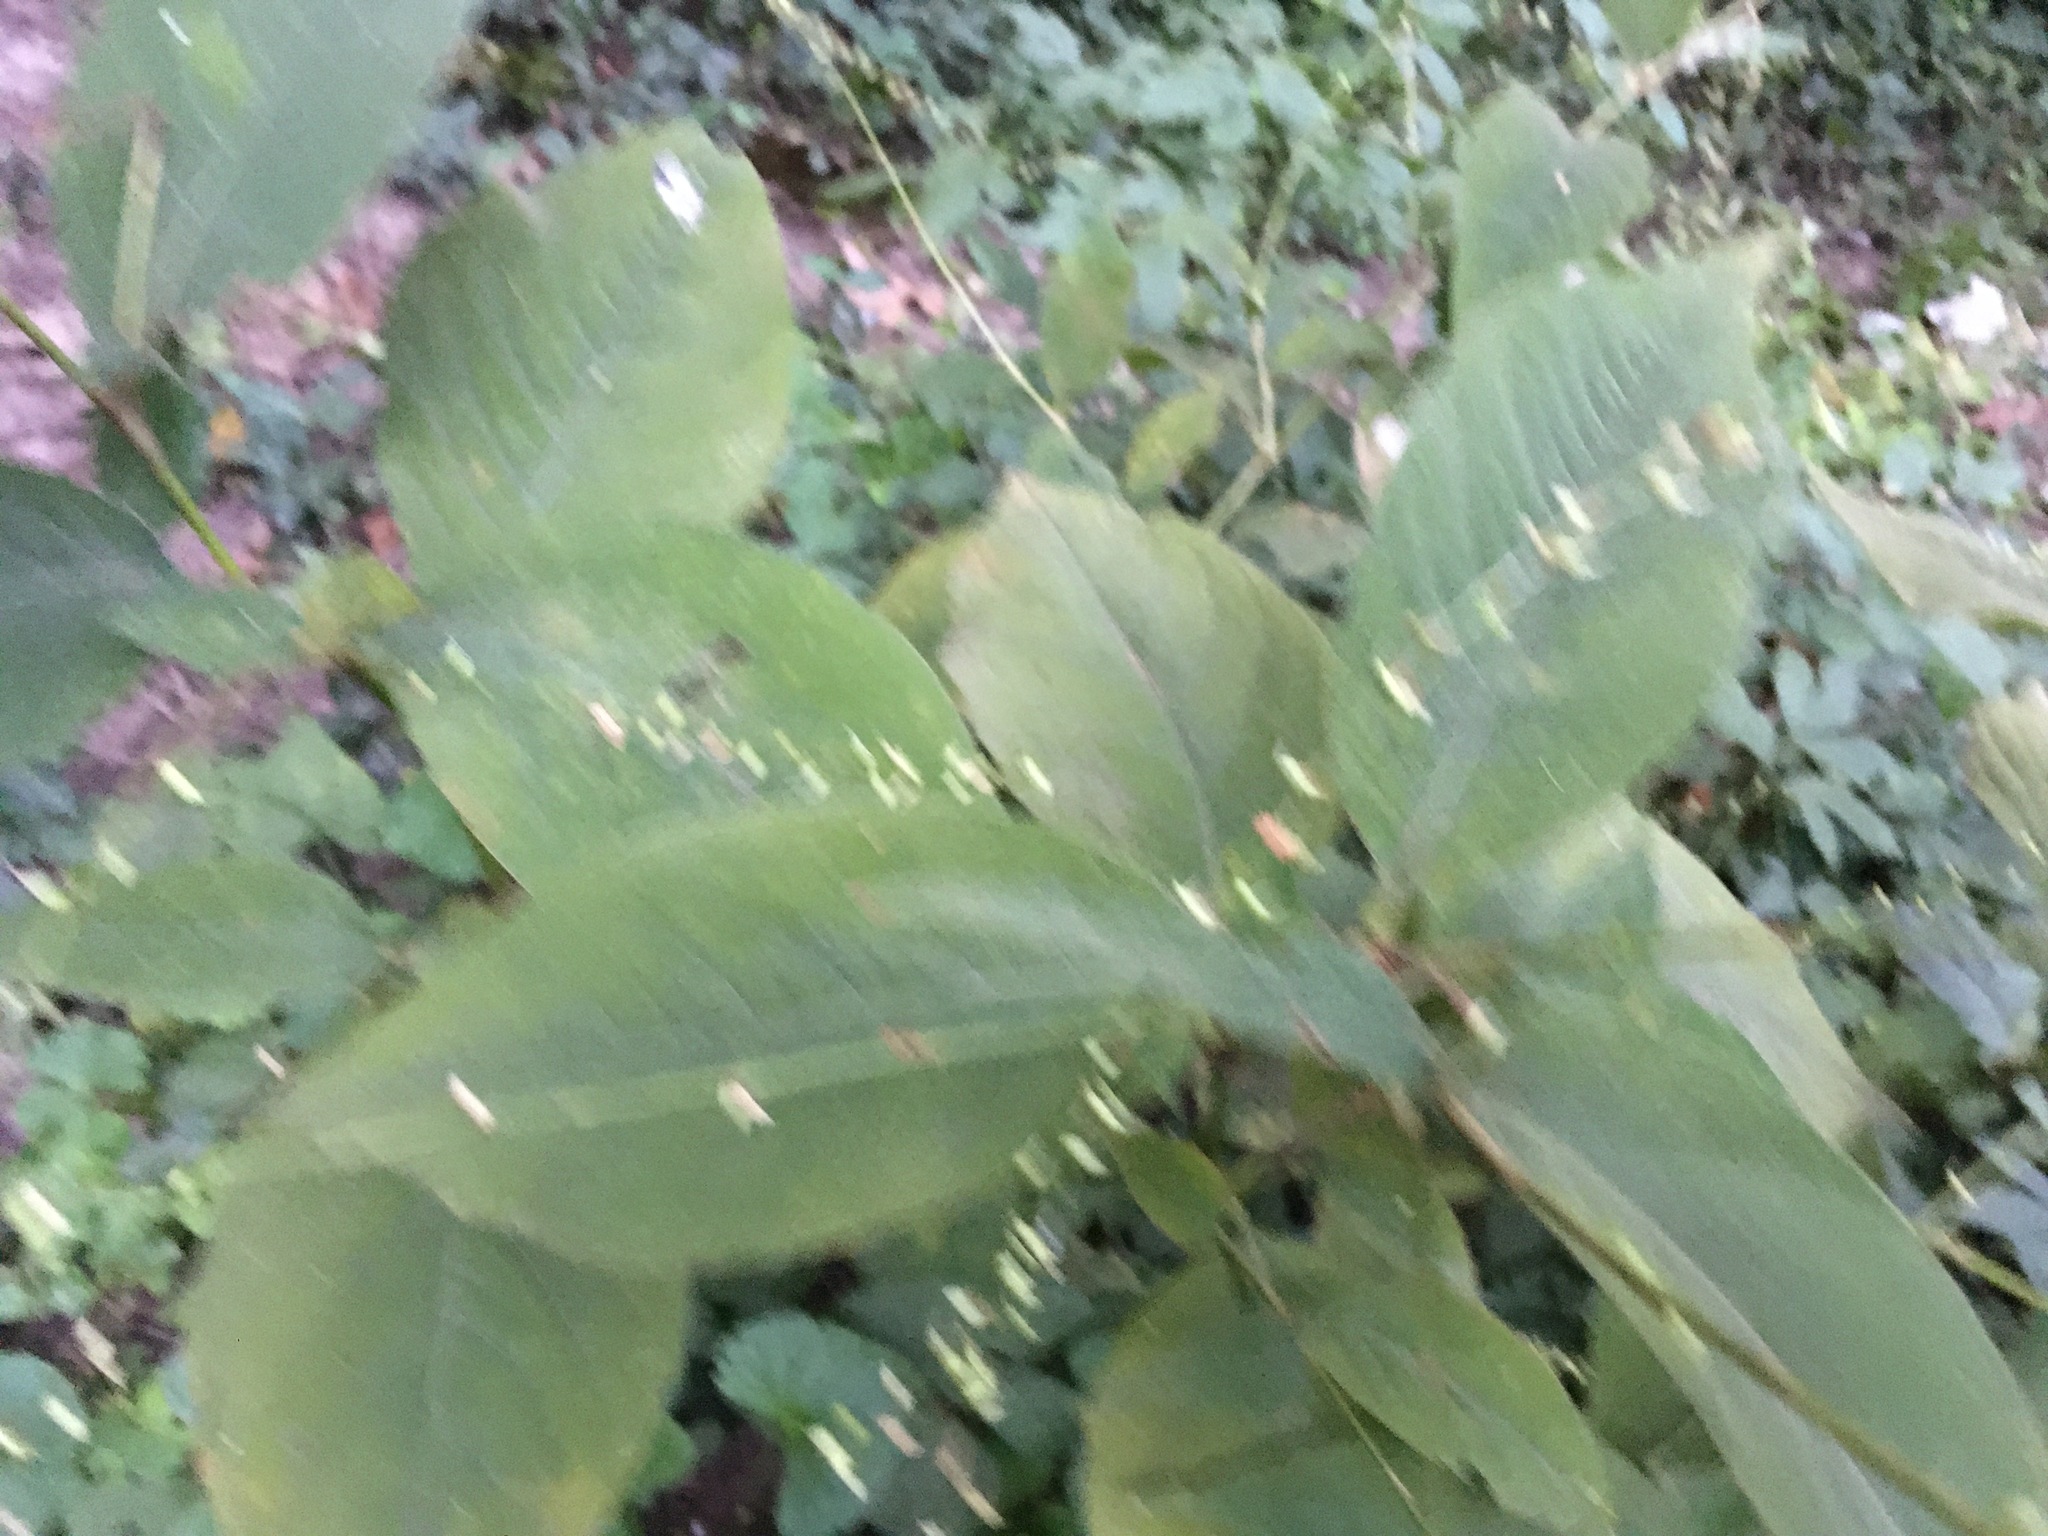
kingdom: Plantae
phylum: Tracheophyta
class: Magnoliopsida
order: Caryophyllales
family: Polygonaceae
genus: Persicaria
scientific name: Persicaria virginiana
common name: Jumpseed
